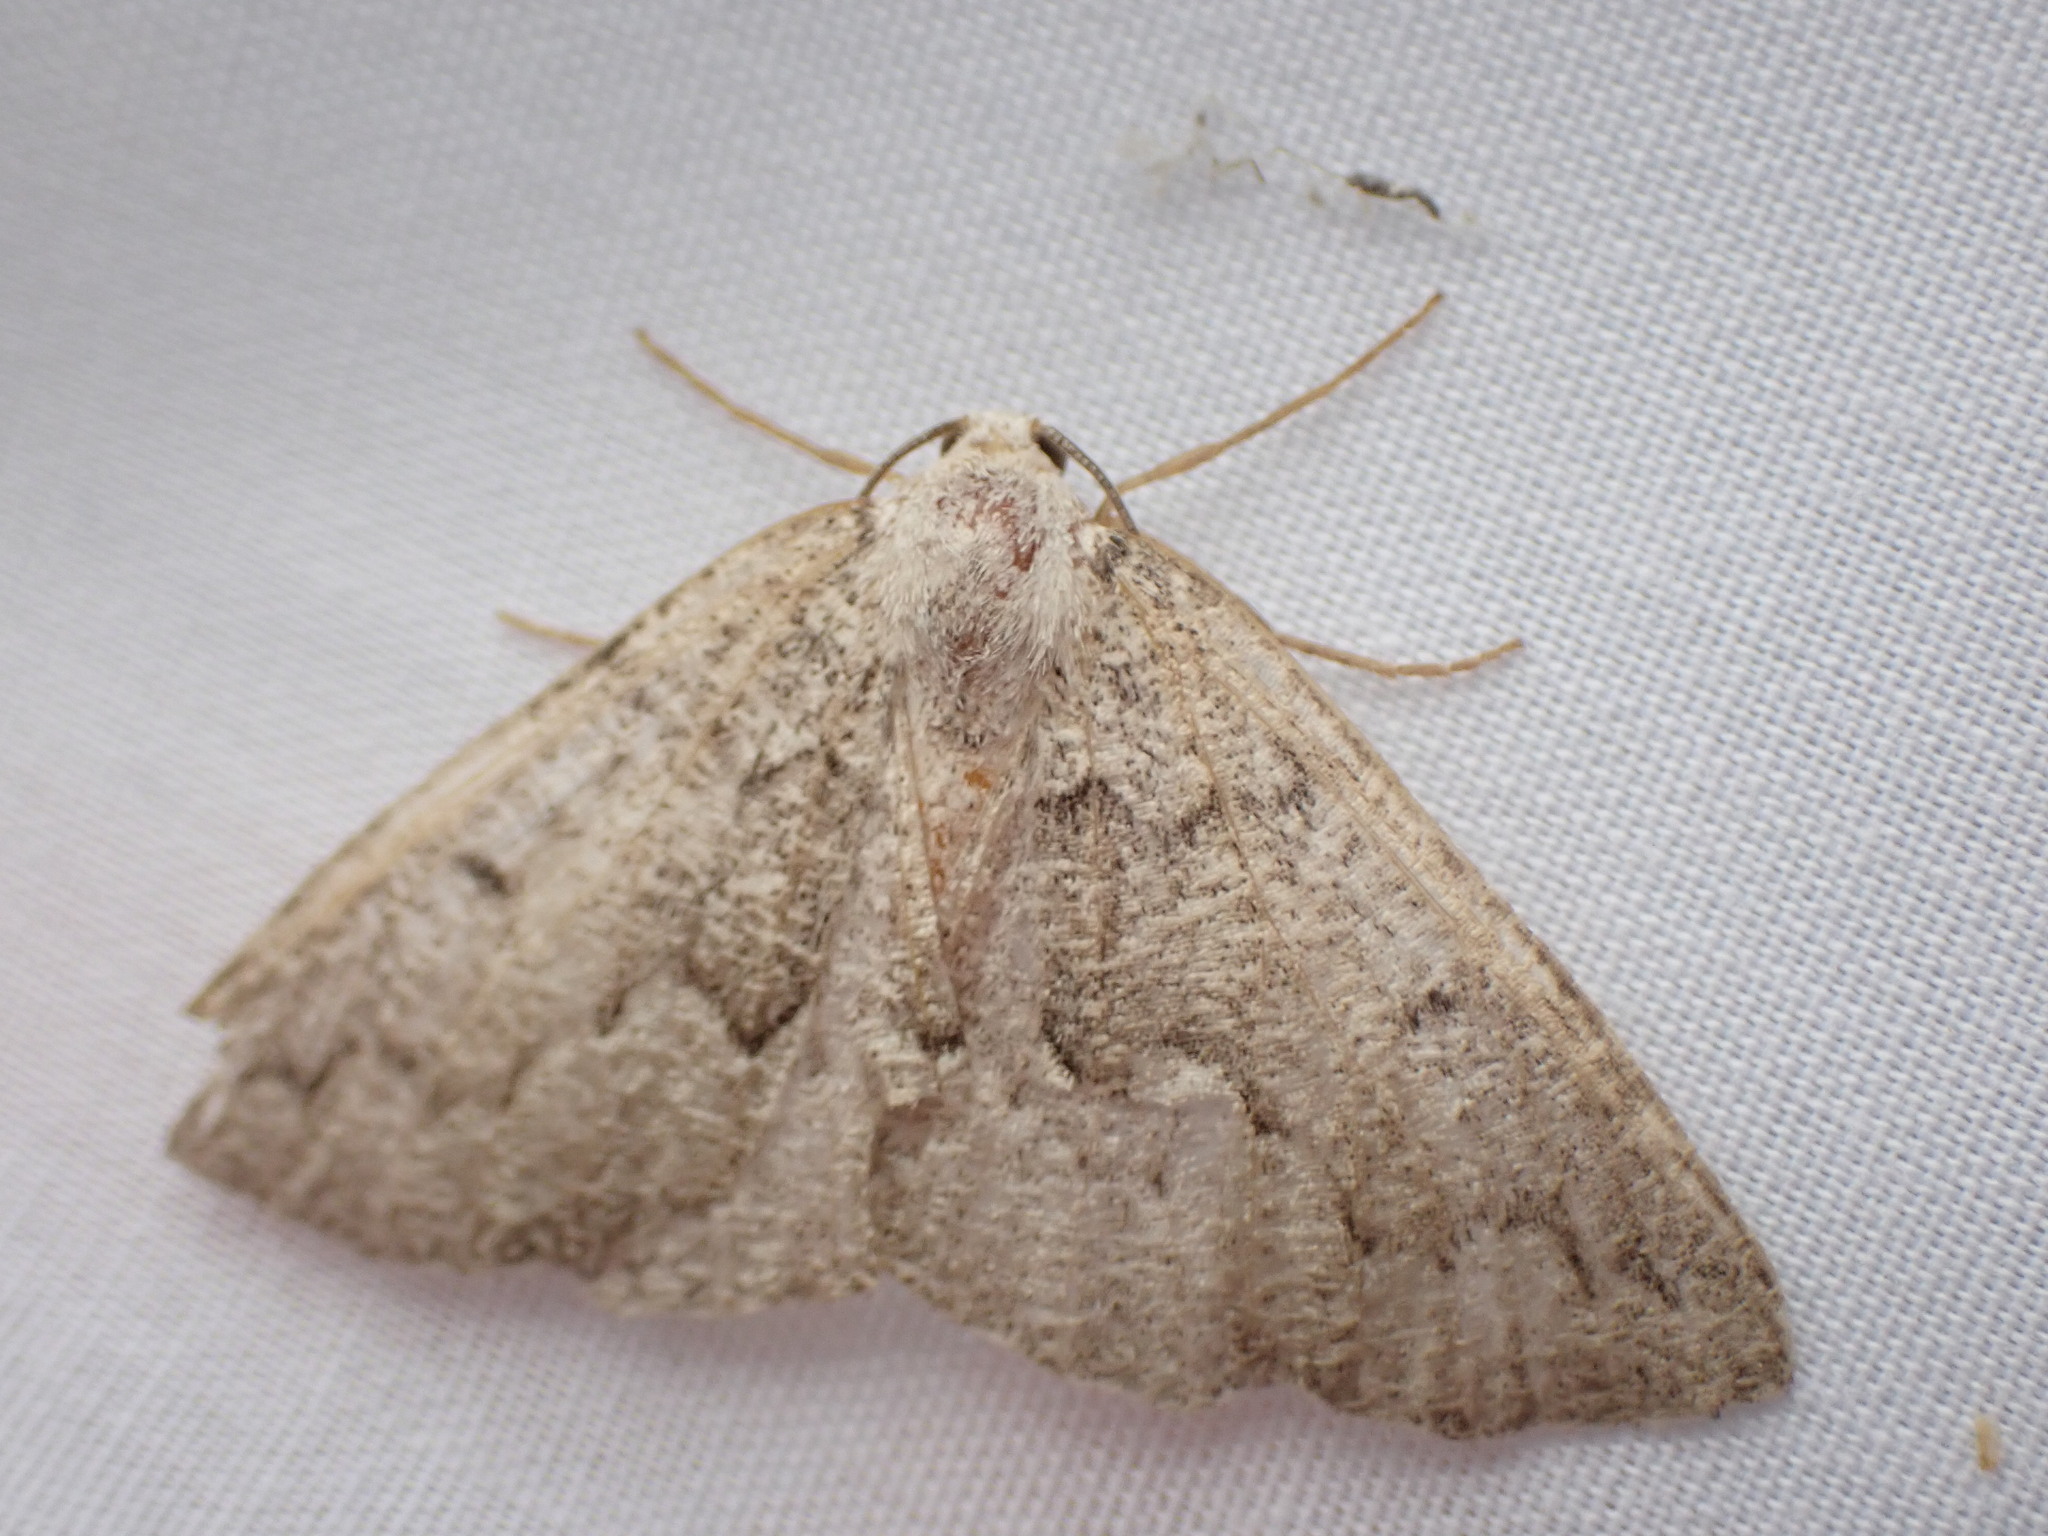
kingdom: Animalia
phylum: Arthropoda
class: Insecta
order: Lepidoptera
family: Geometridae
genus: Sabulodes
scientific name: Sabulodes
